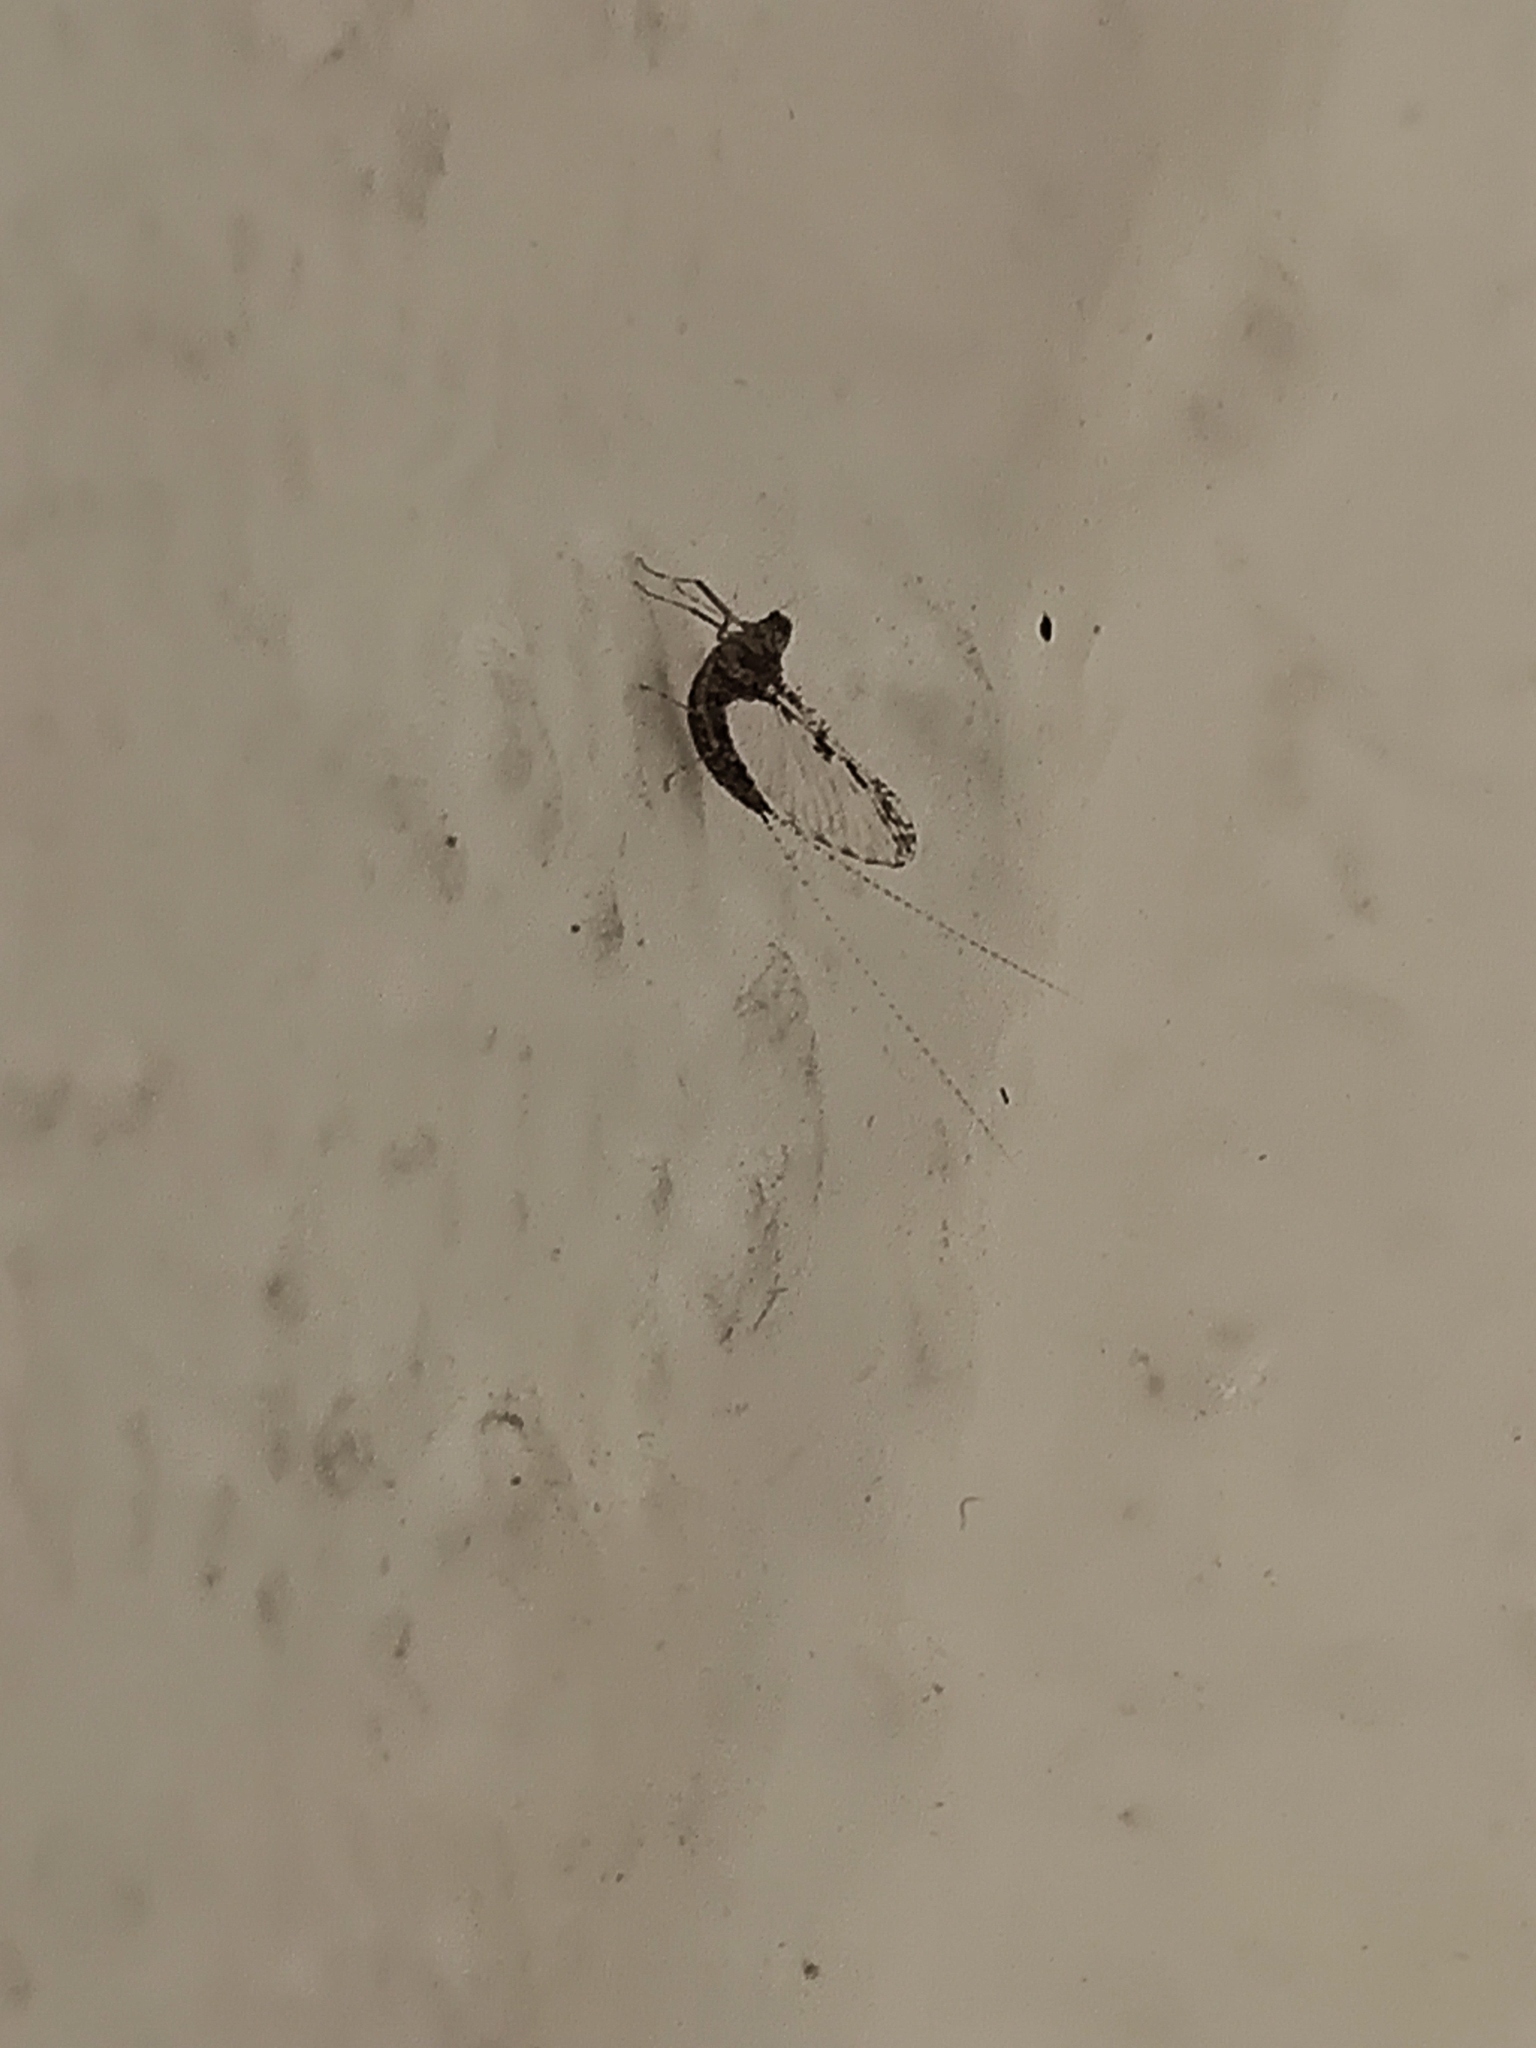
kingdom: Animalia
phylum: Arthropoda
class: Insecta
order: Ephemeroptera
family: Baetidae
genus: Callibaetis
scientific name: Callibaetis pictus
